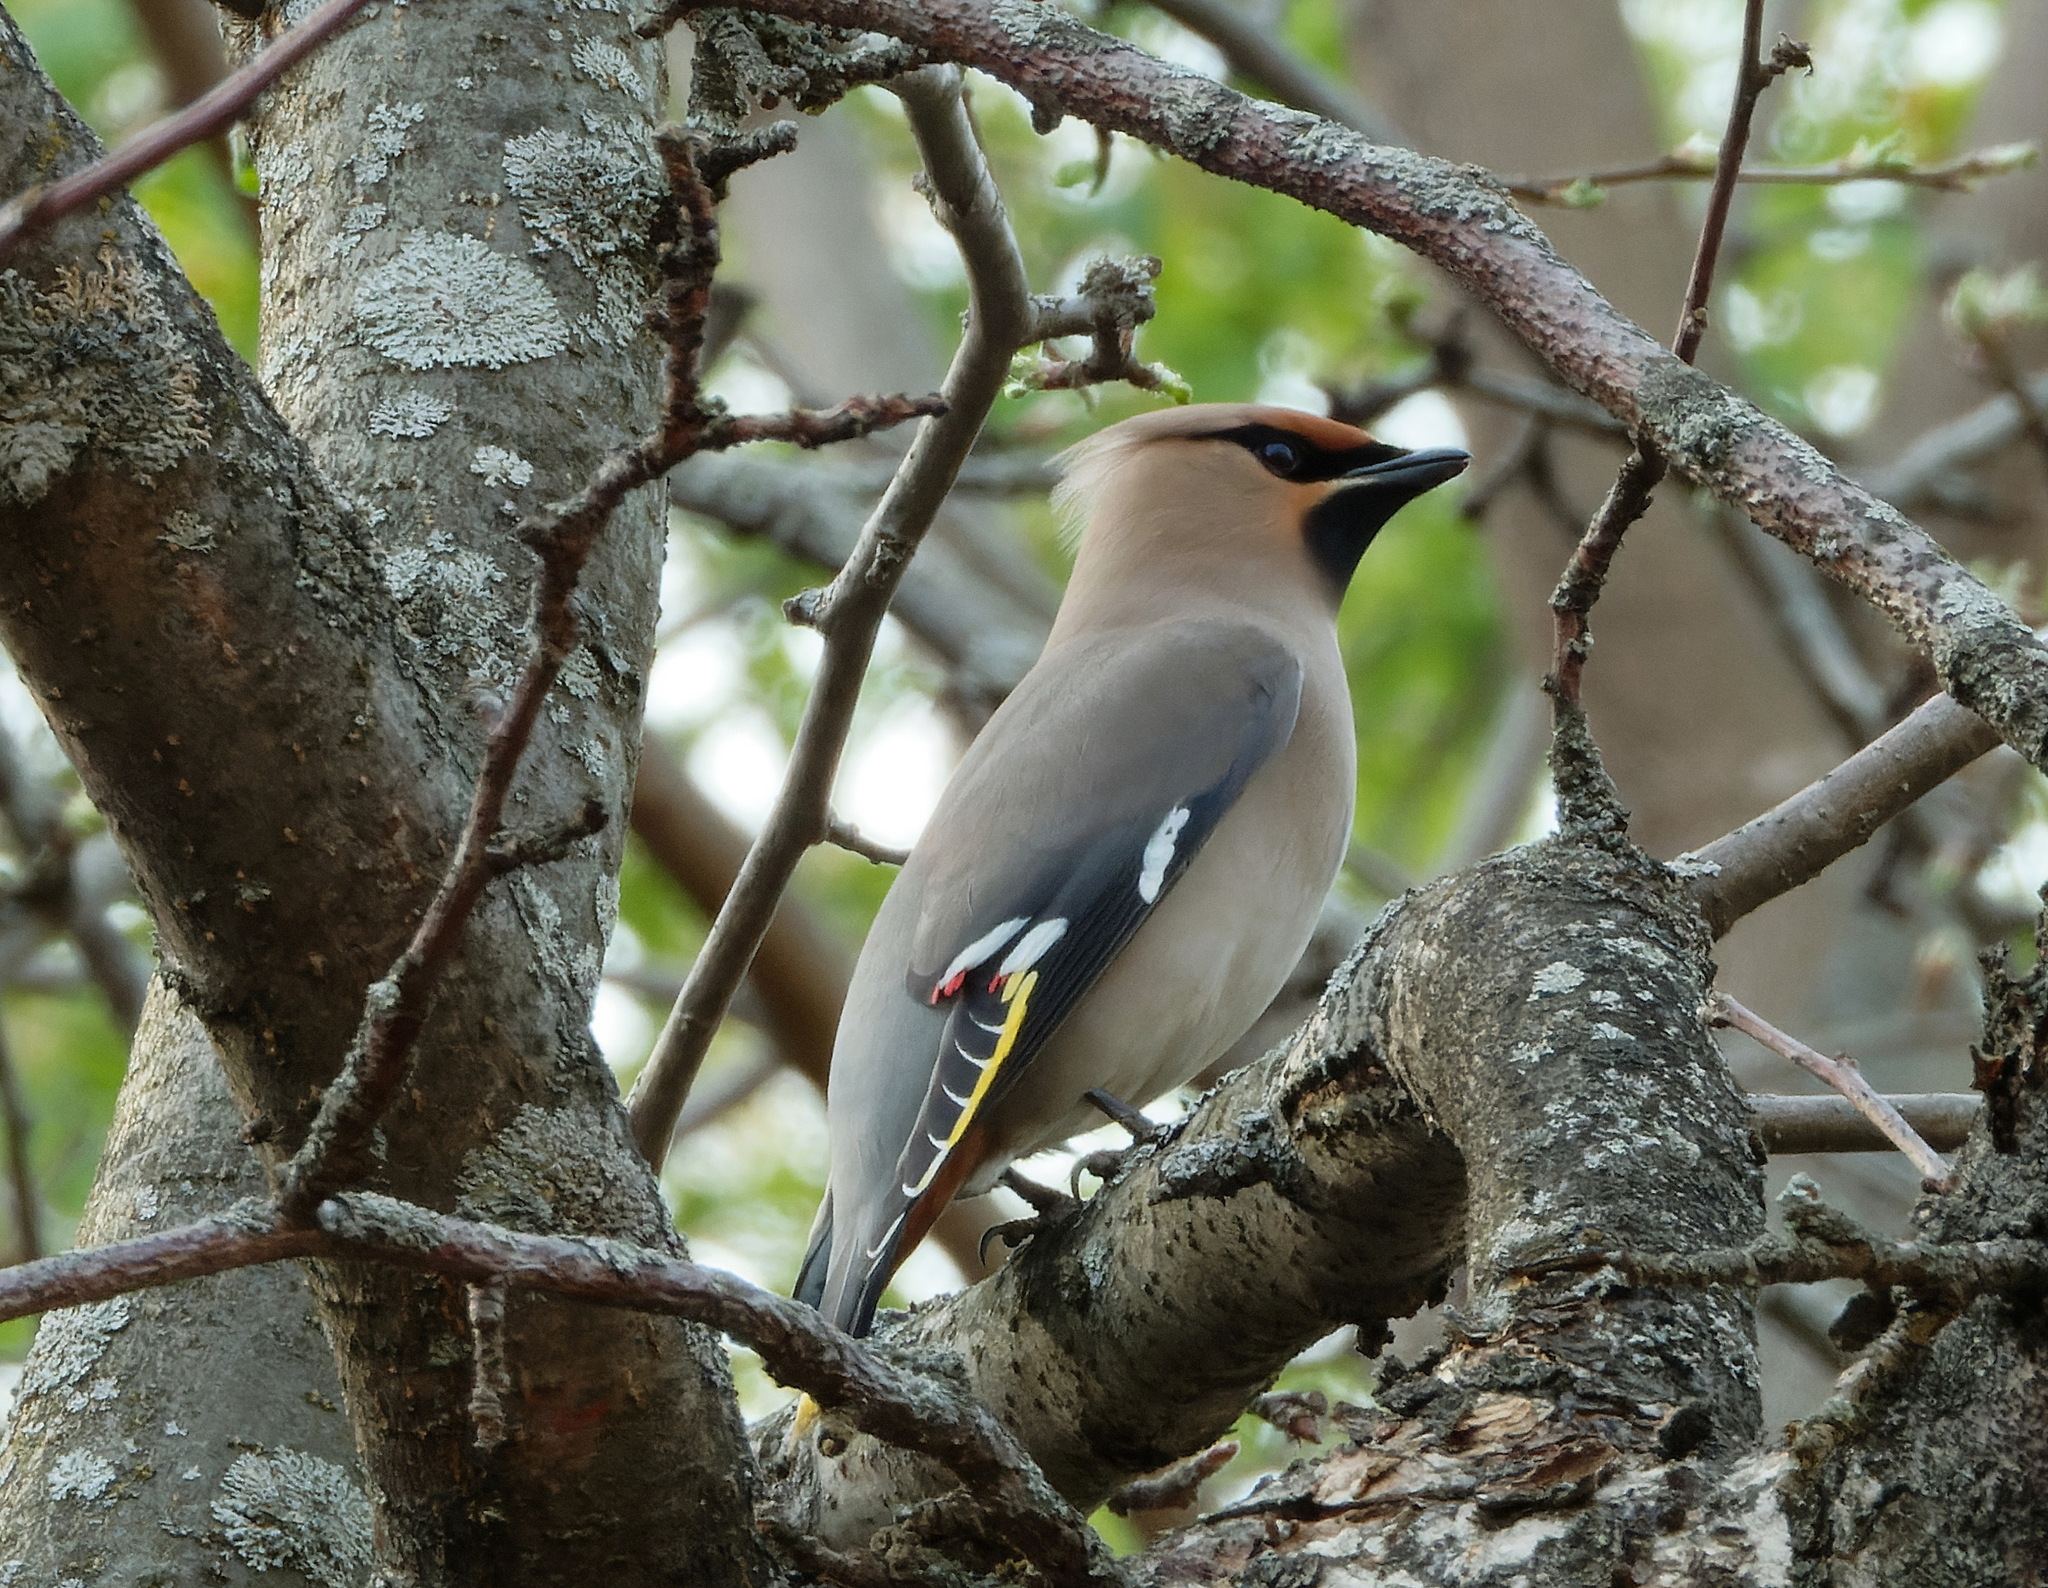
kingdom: Animalia
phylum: Chordata
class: Aves
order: Passeriformes
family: Bombycillidae
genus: Bombycilla
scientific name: Bombycilla garrulus
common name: Bohemian waxwing
